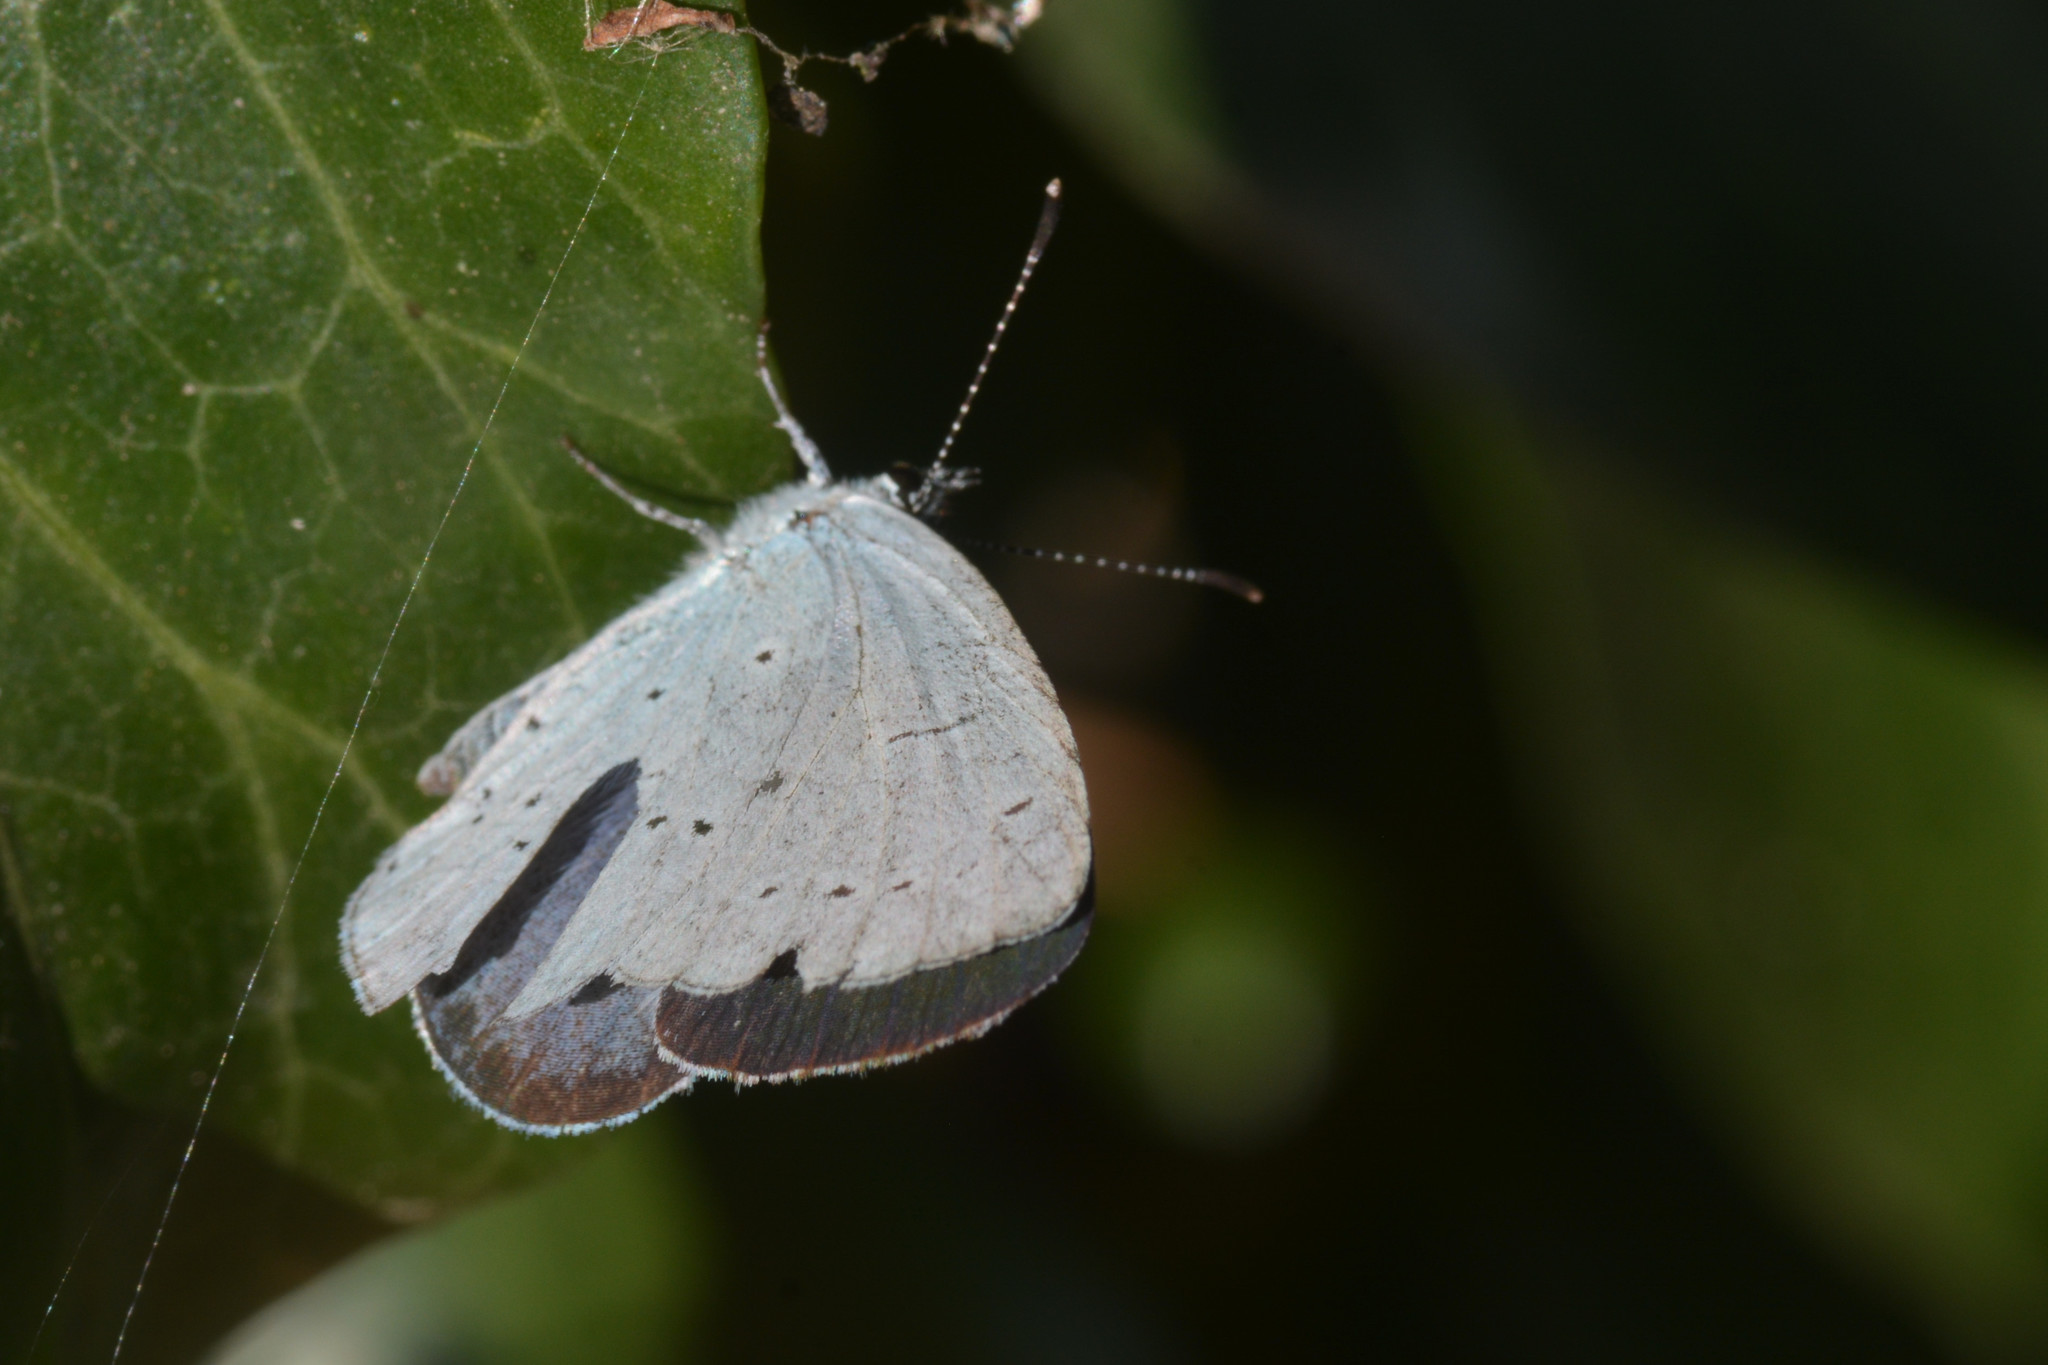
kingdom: Animalia
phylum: Arthropoda
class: Insecta
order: Lepidoptera
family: Lycaenidae
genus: Celastrina
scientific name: Celastrina argiolus
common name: Holly blue
